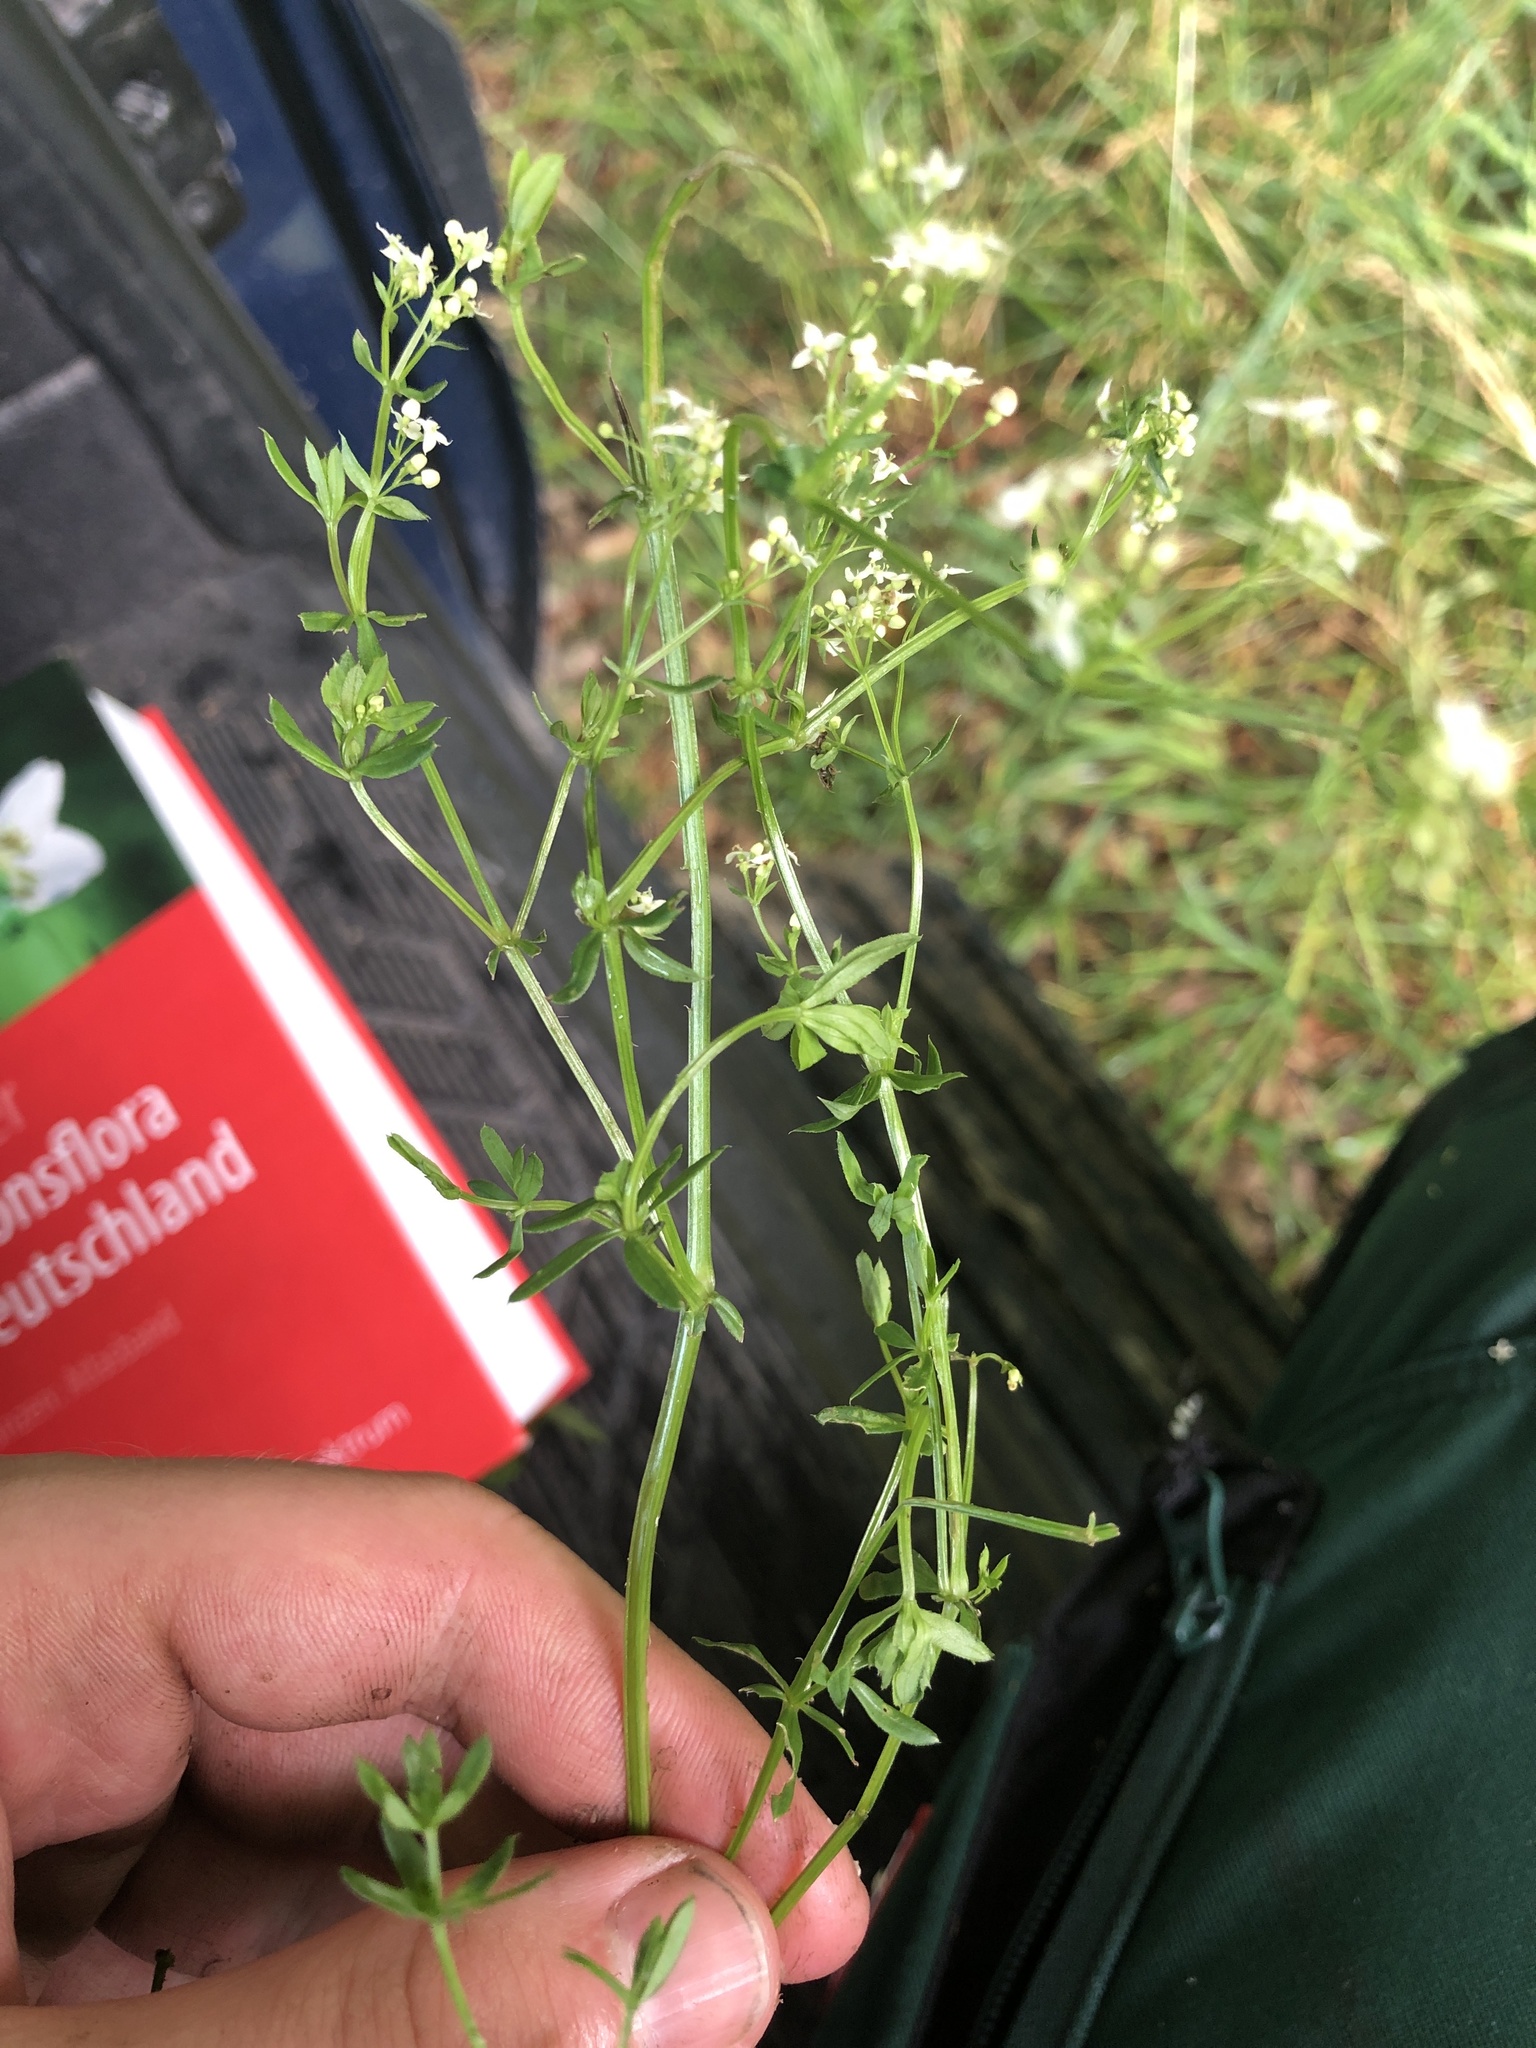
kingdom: Plantae
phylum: Tracheophyta
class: Magnoliopsida
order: Gentianales
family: Rubiaceae
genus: Galium
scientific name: Galium palustre
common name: Common marsh-bedstraw
